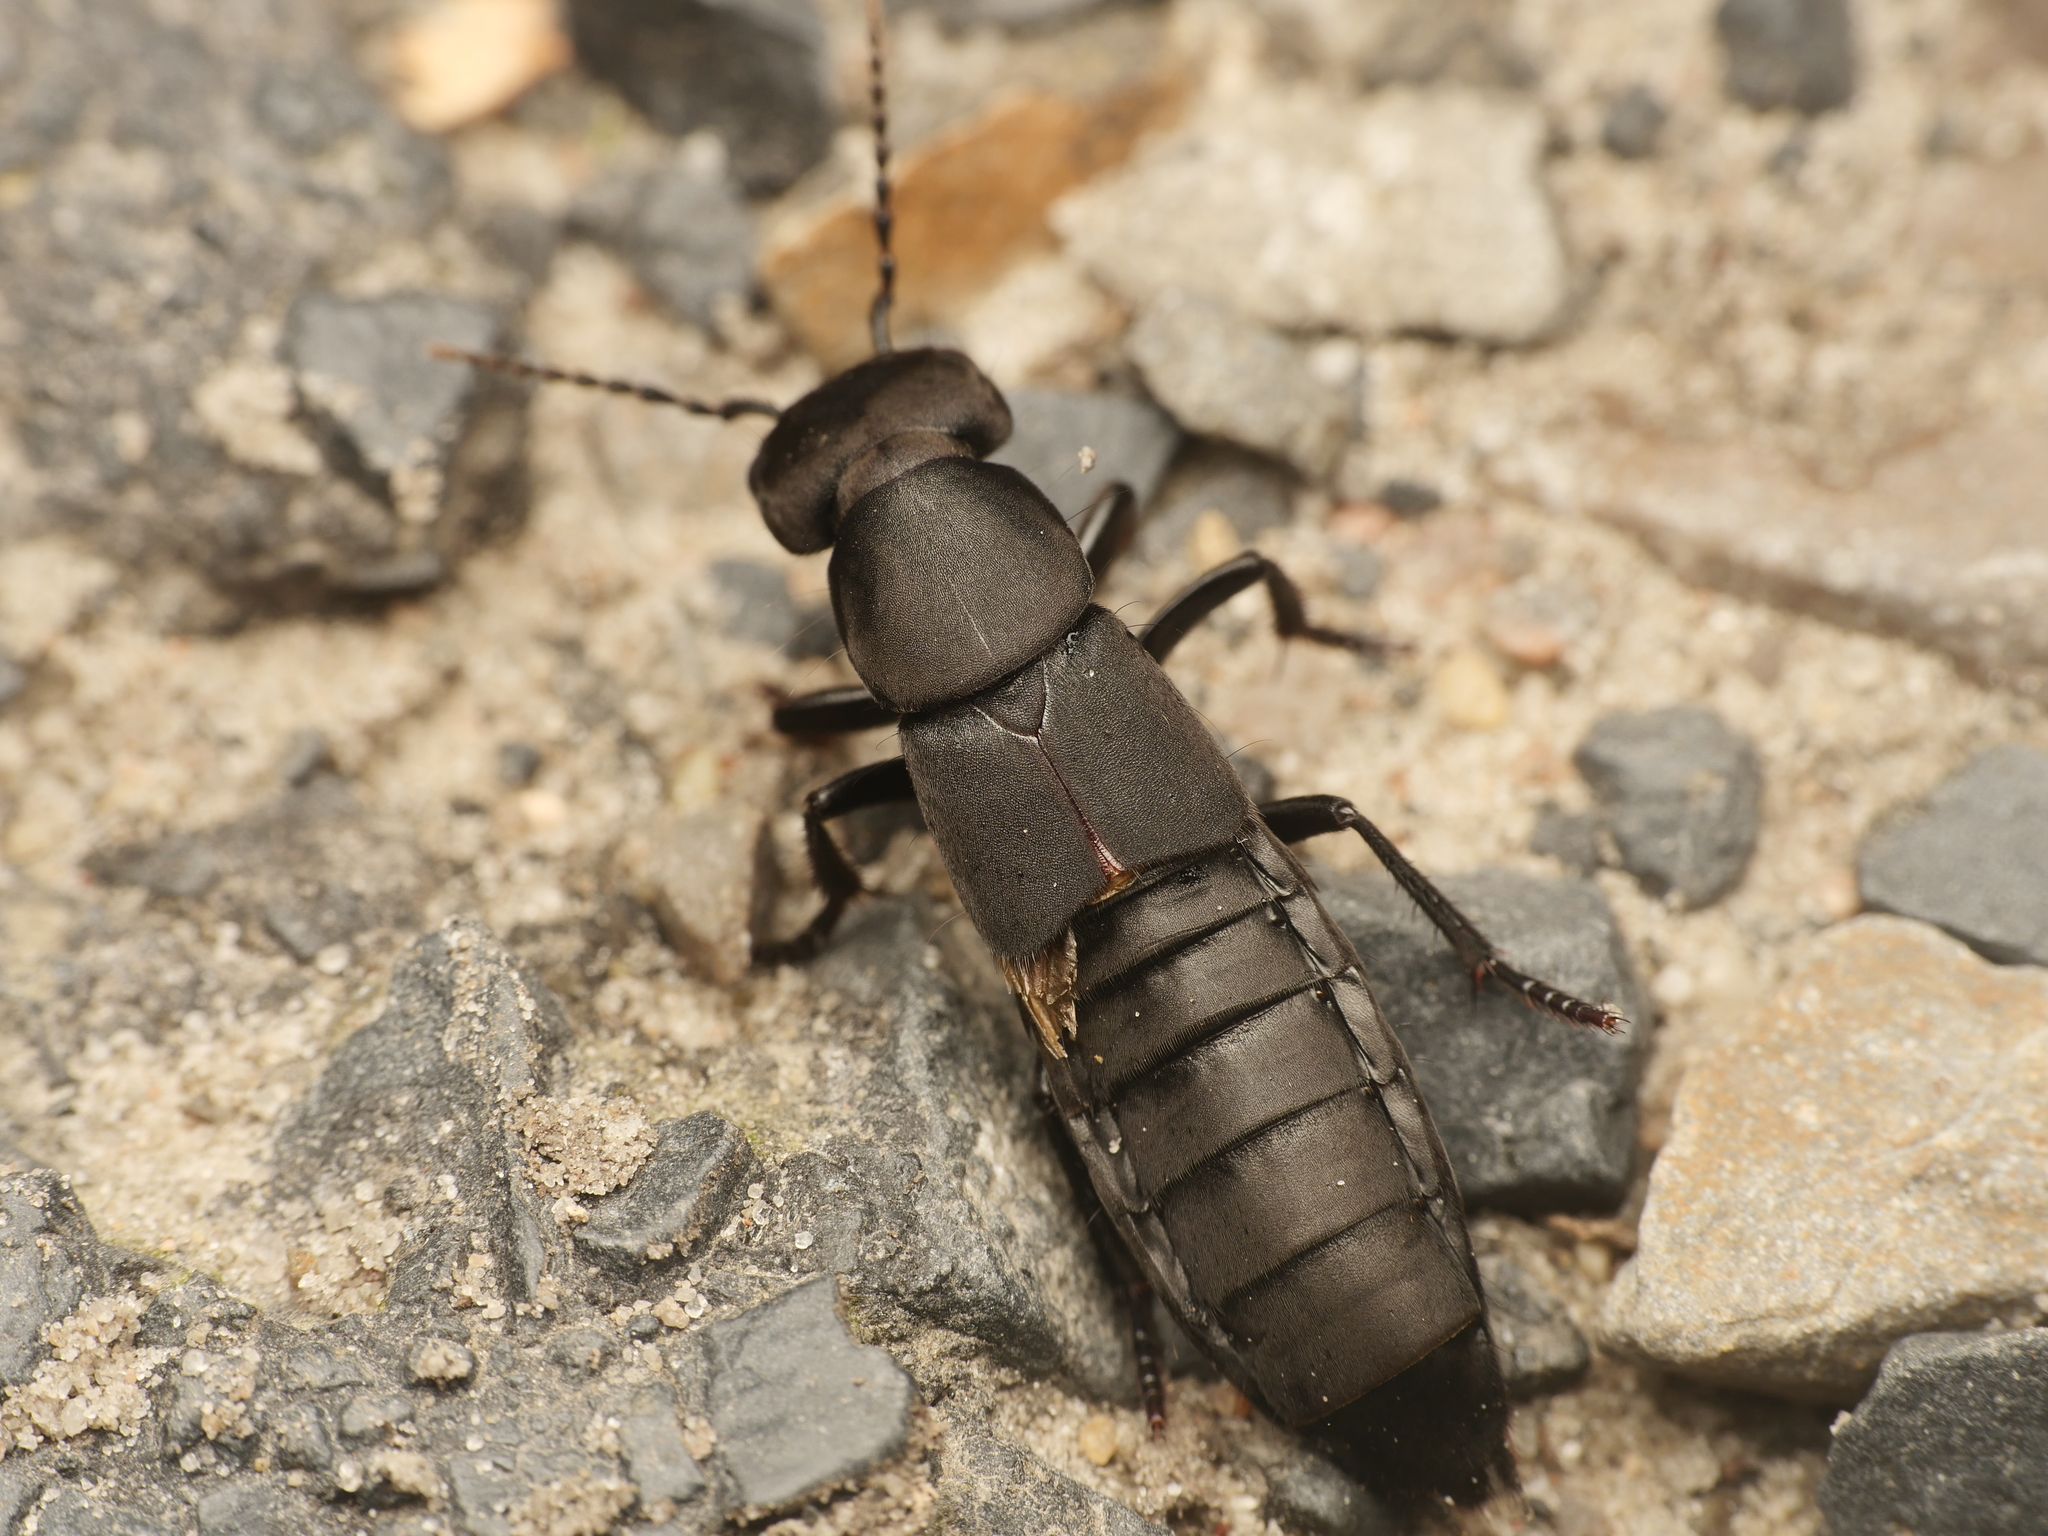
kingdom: Animalia
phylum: Arthropoda
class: Insecta
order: Coleoptera
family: Staphylinidae
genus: Ocypus
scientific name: Ocypus olens
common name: Devil's coach-horse
